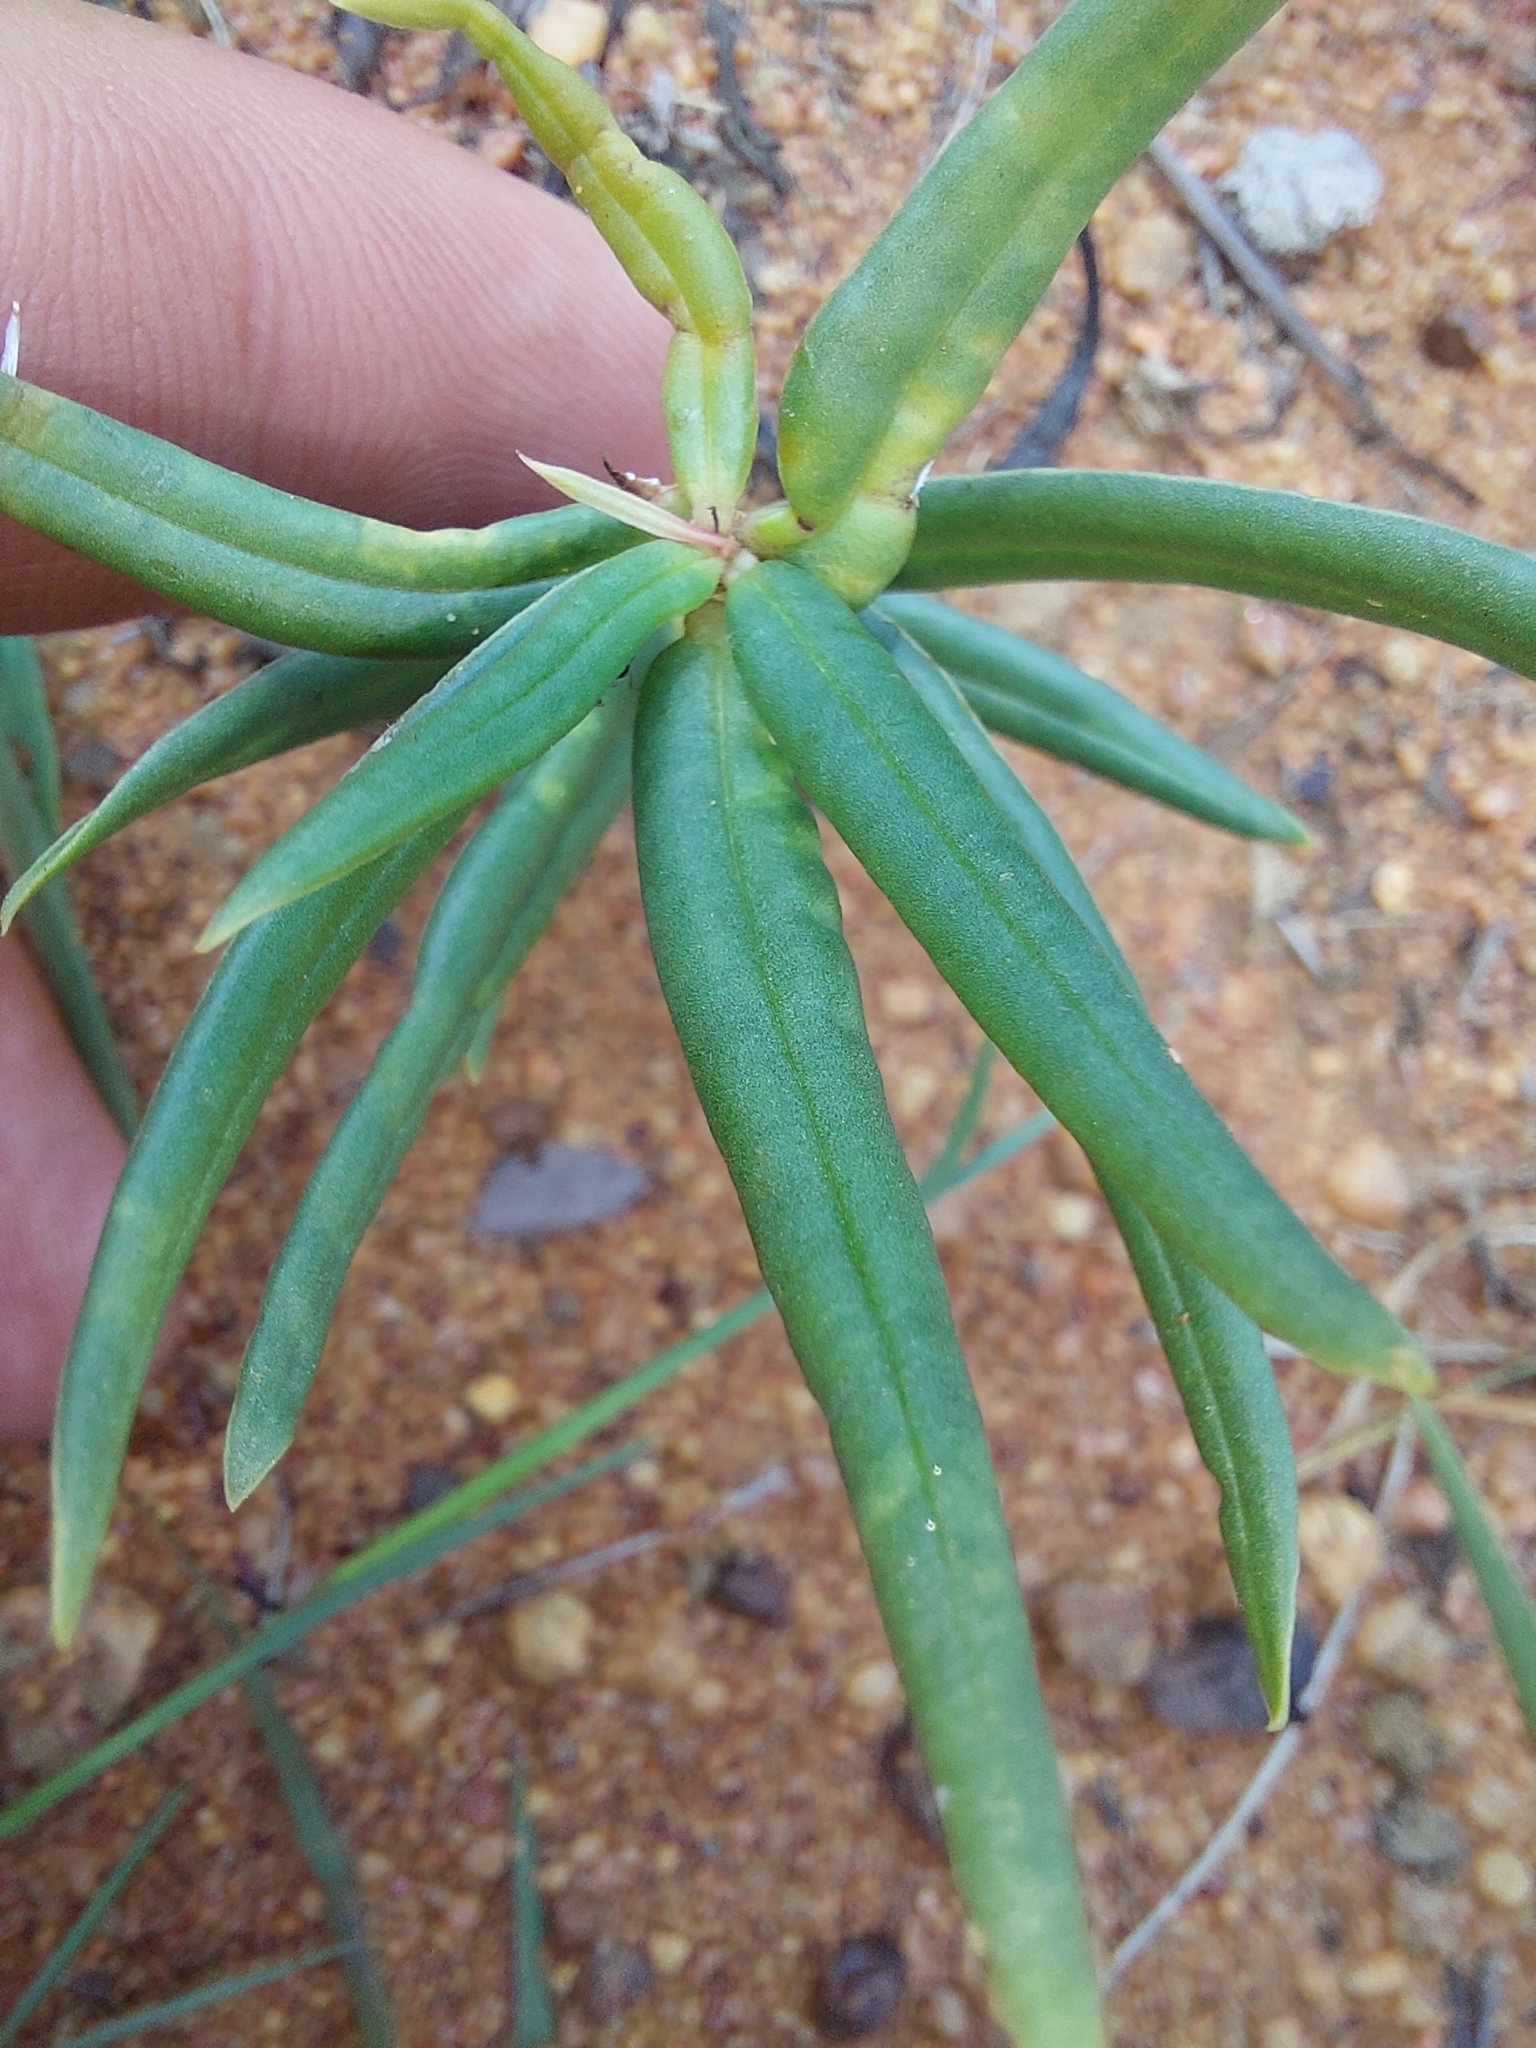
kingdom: Plantae
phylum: Tracheophyta
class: Magnoliopsida
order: Caryophyllales
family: Talinaceae
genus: Talinum
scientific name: Talinum caffrum
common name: Flameflower
